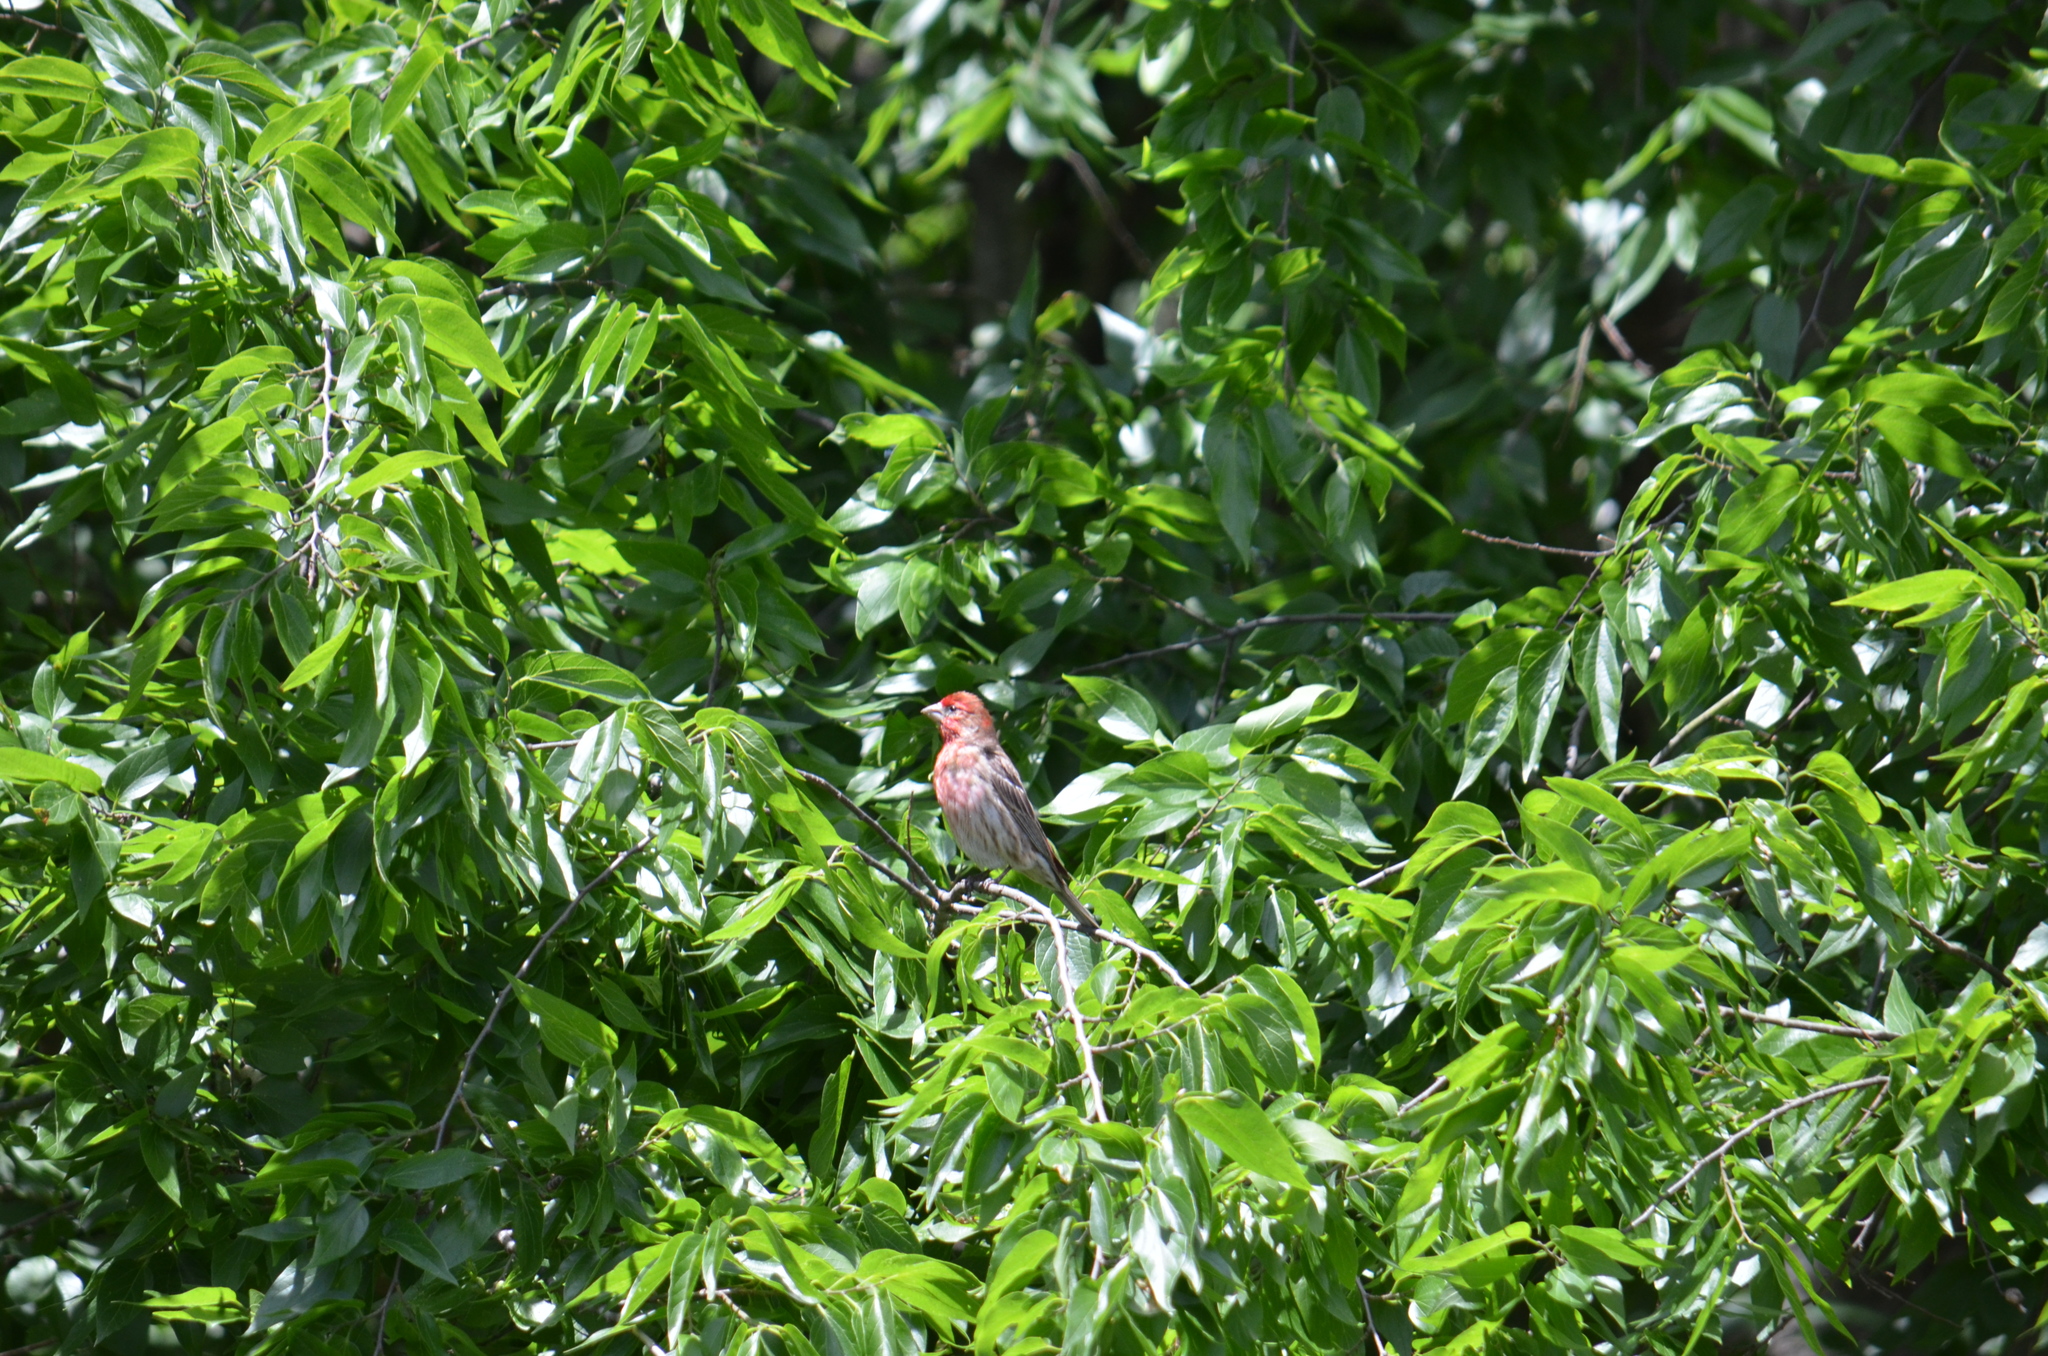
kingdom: Animalia
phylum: Chordata
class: Aves
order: Passeriformes
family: Fringillidae
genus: Haemorhous
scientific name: Haemorhous mexicanus
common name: House finch
